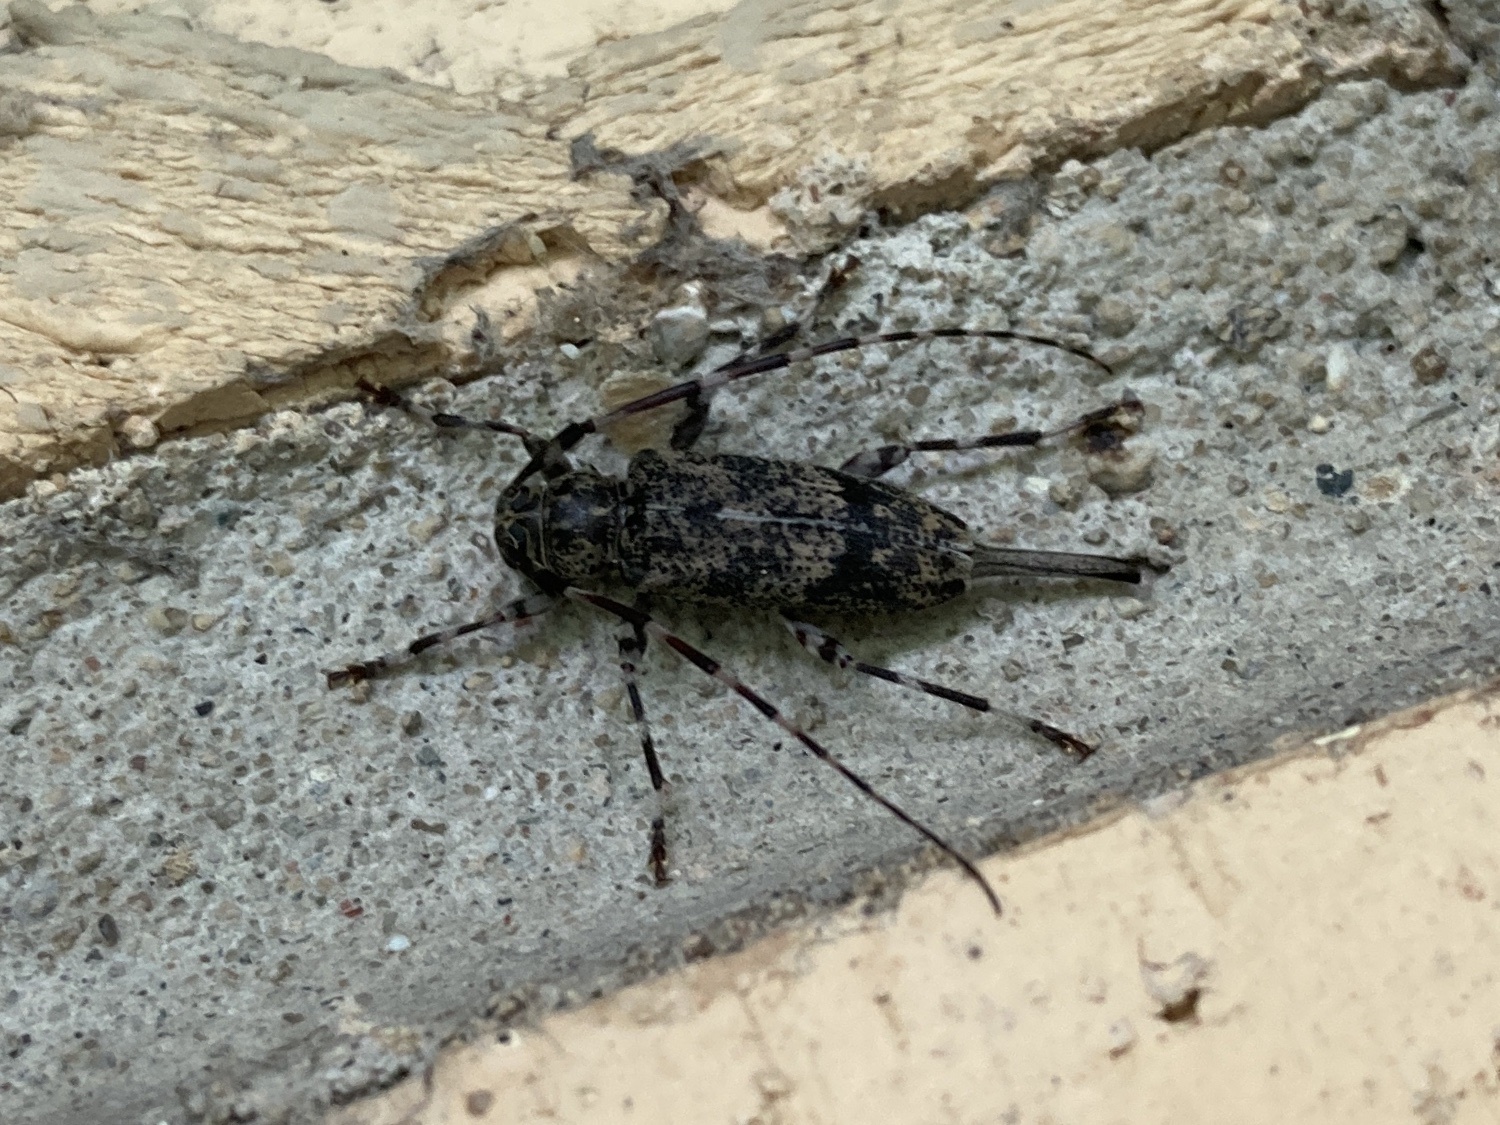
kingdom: Animalia
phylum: Arthropoda
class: Insecta
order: Coleoptera
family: Cerambycidae
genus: Graphisurus
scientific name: Graphisurus fasciatus
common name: Banded graphisurus
